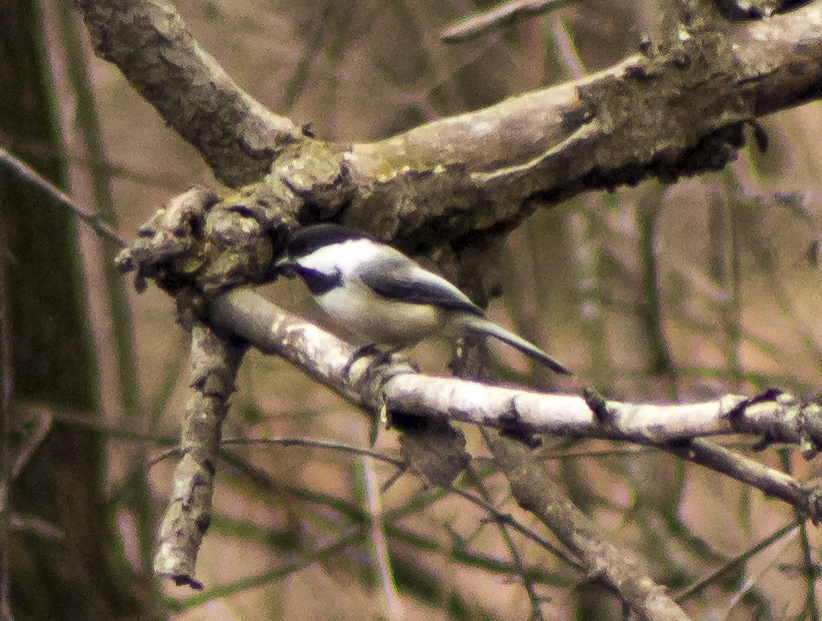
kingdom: Animalia
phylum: Chordata
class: Aves
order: Passeriformes
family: Paridae
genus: Poecile
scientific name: Poecile atricapillus
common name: Black-capped chickadee
